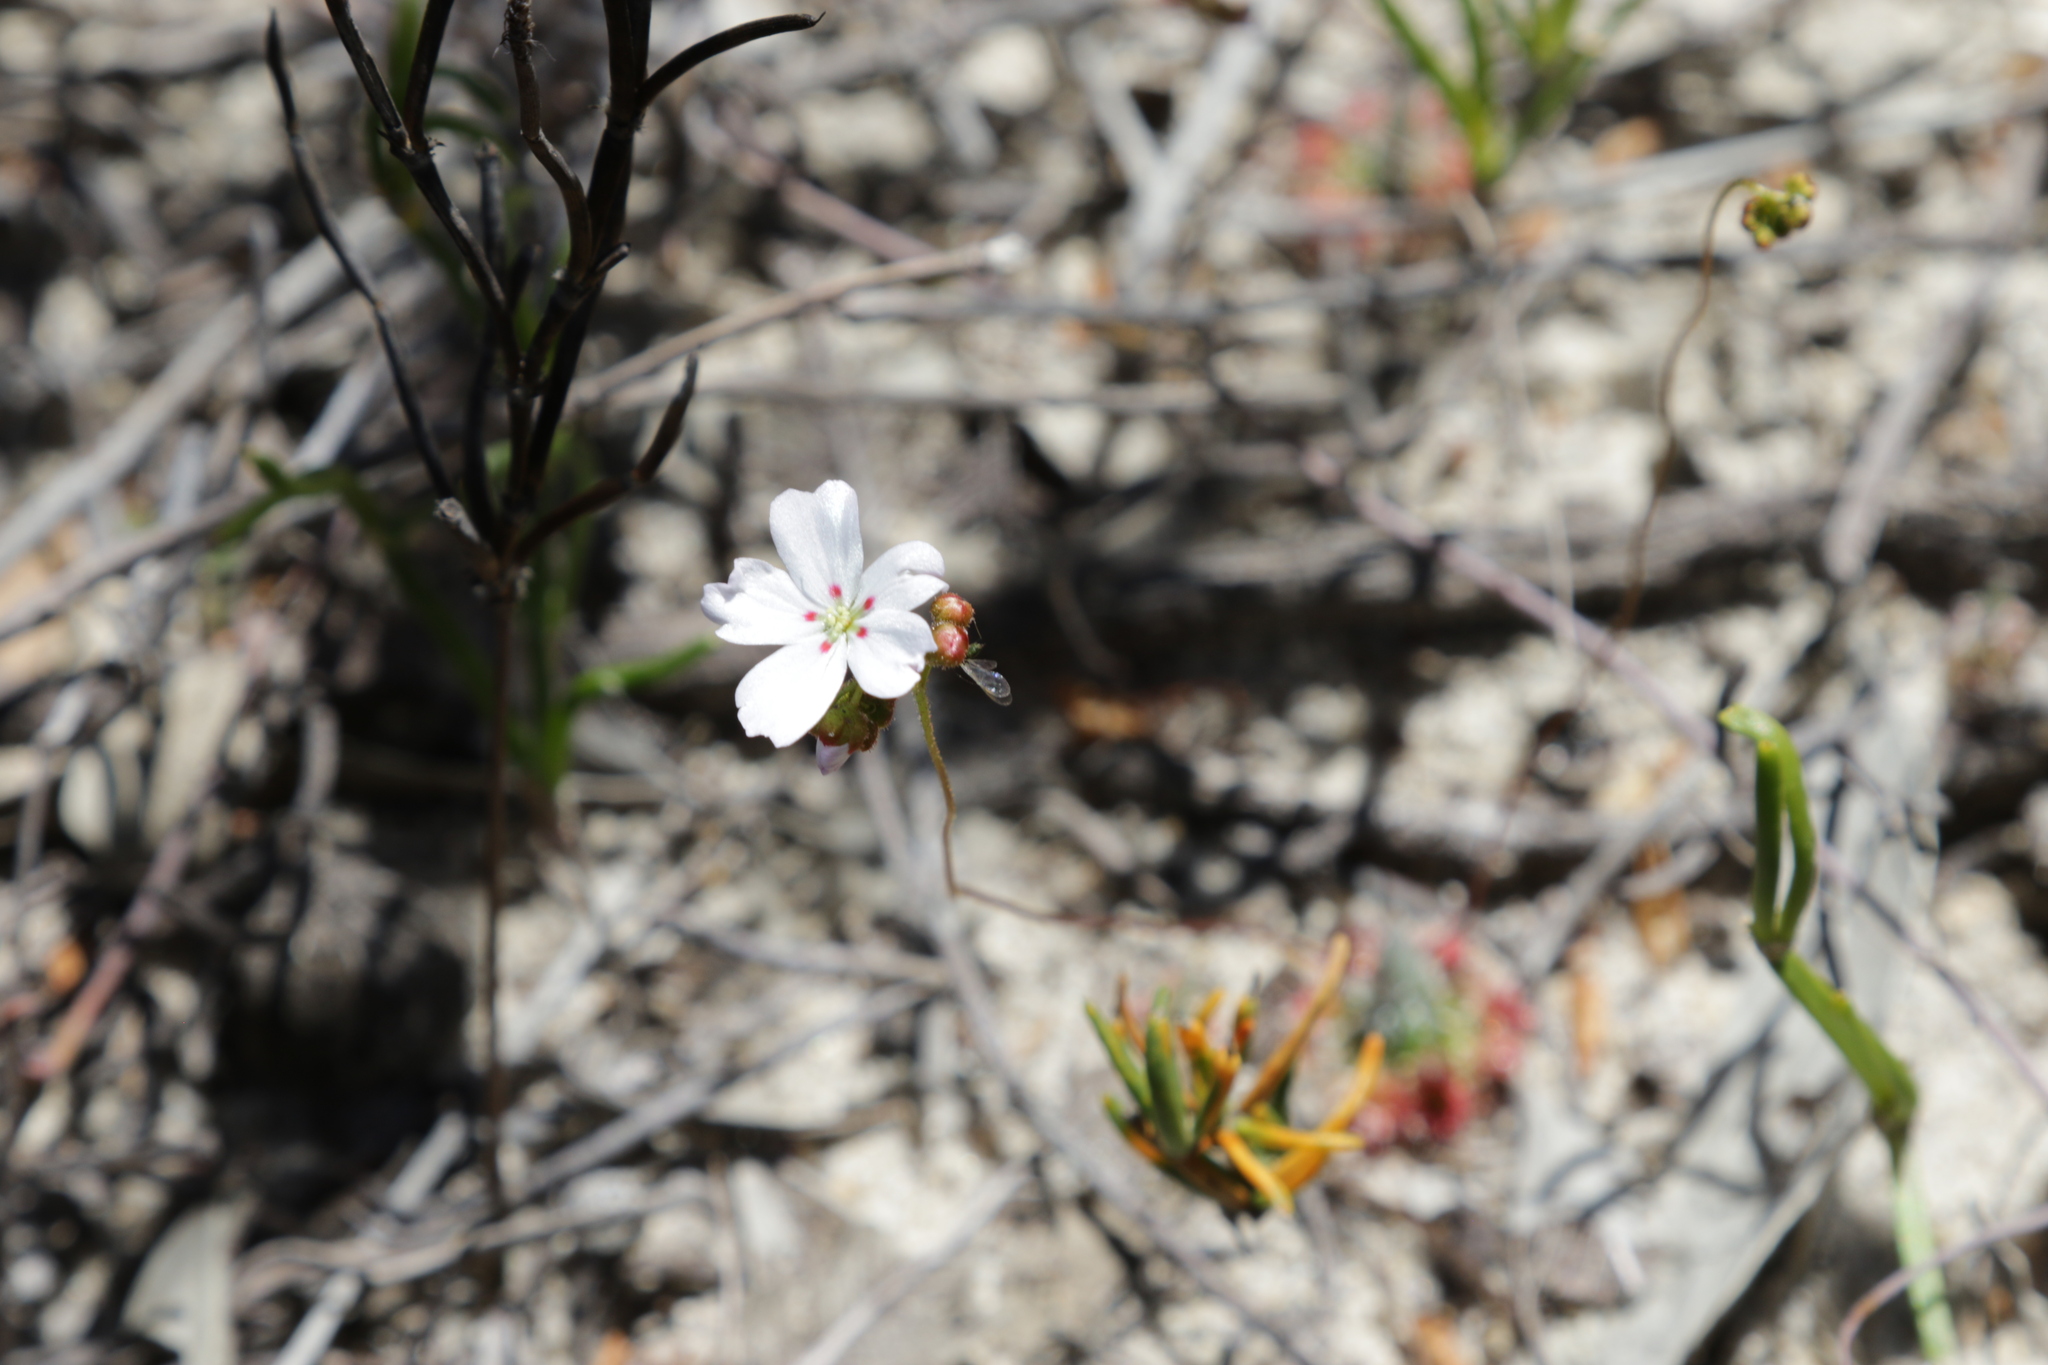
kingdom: Plantae
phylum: Tracheophyta
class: Magnoliopsida
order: Caryophyllales
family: Droseraceae
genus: Drosera
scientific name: Drosera eneabba
